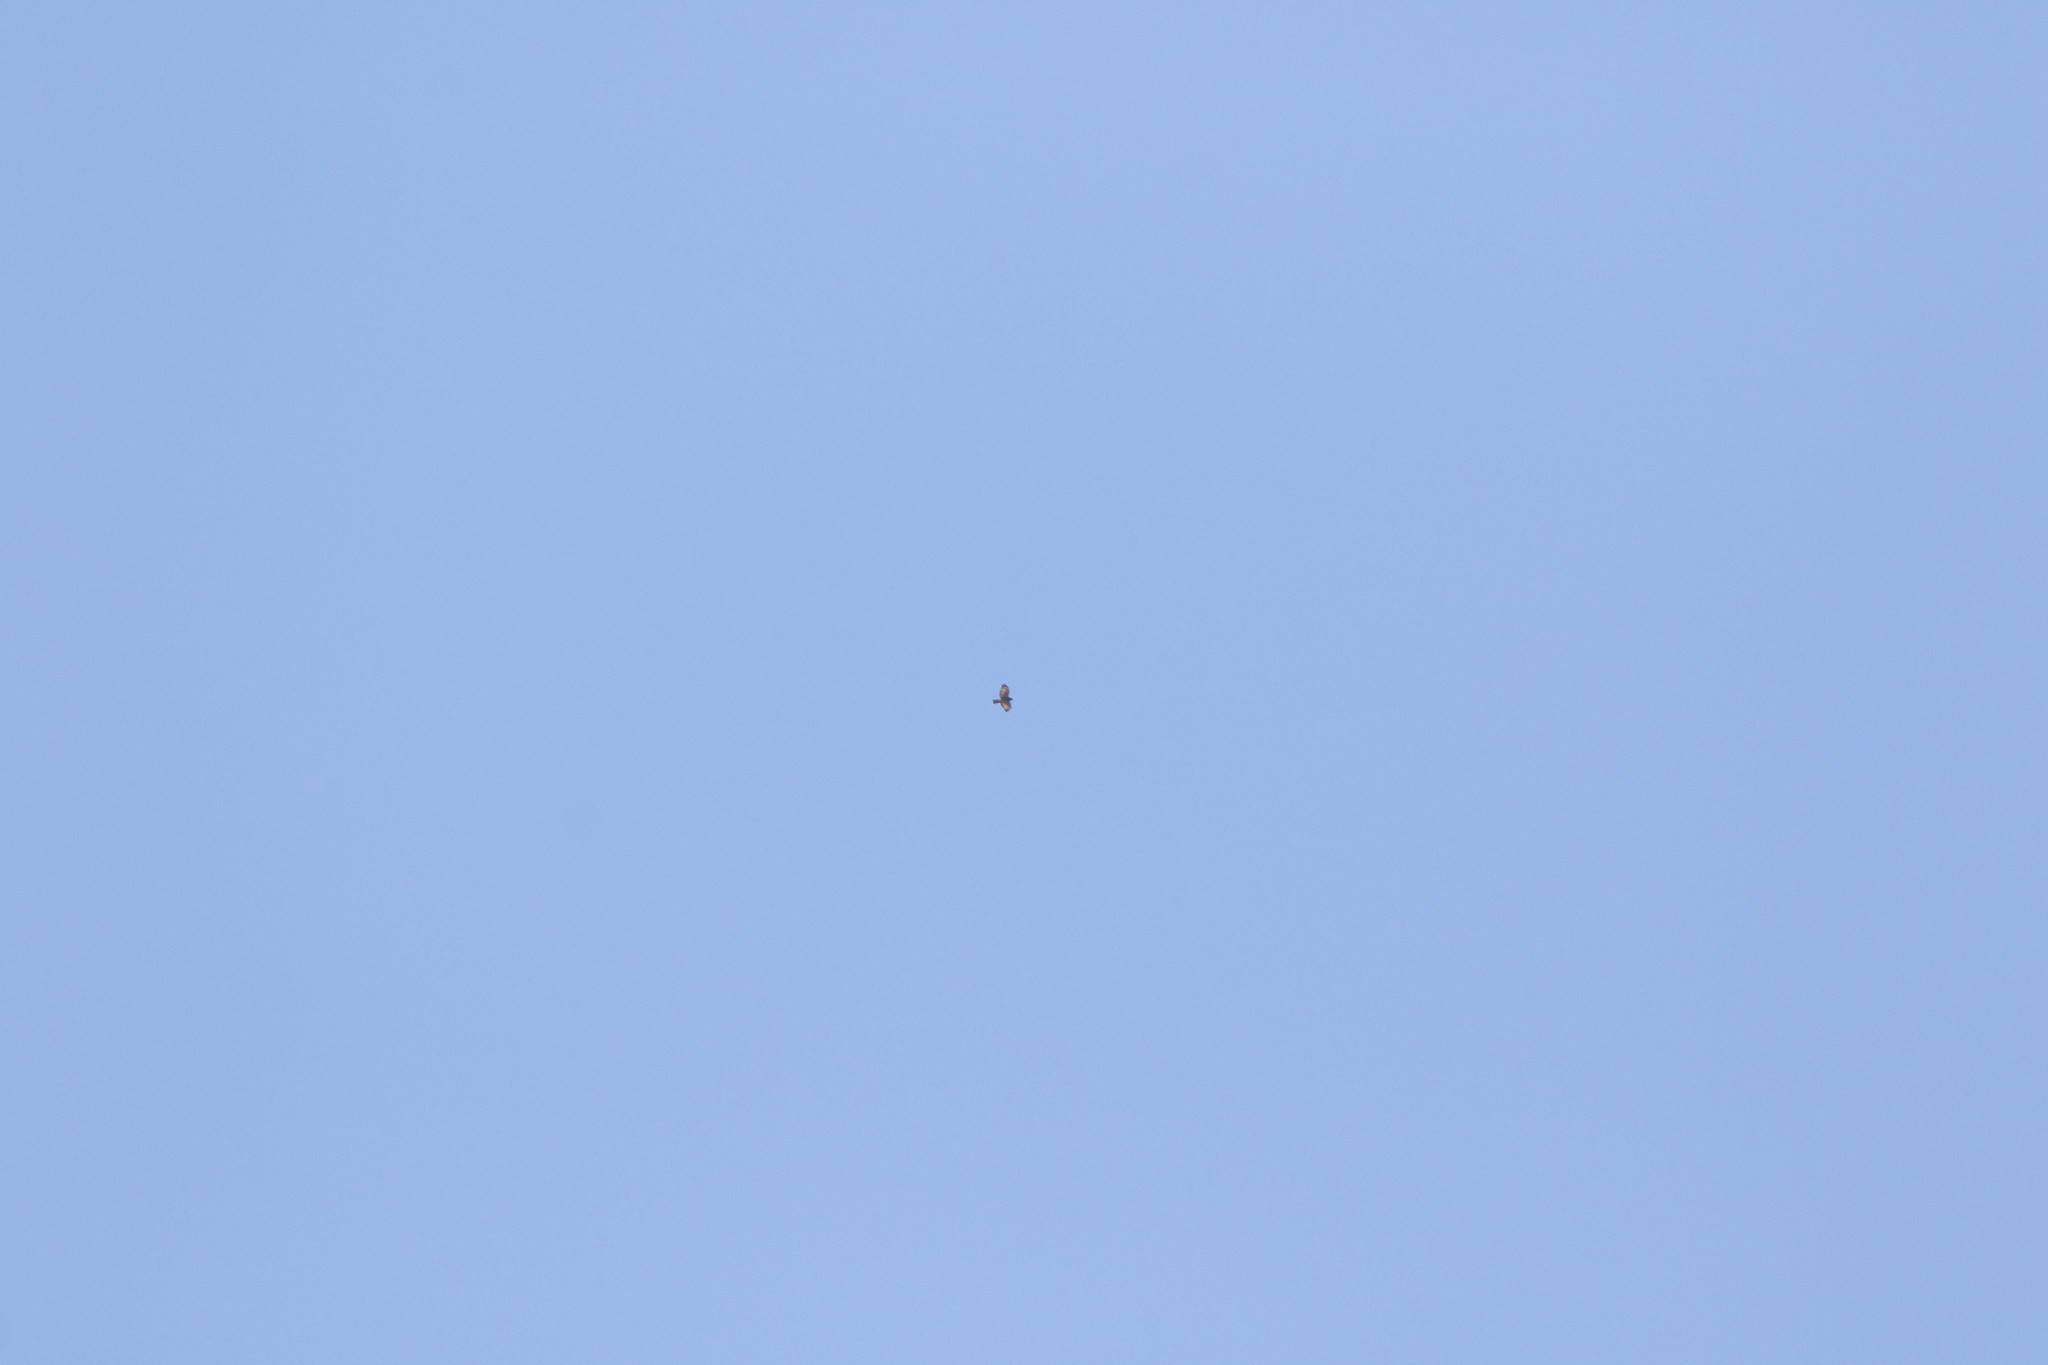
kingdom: Animalia
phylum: Chordata
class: Aves
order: Accipitriformes
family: Accipitridae
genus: Buteo
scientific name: Buteo platypterus
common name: Broad-winged hawk
